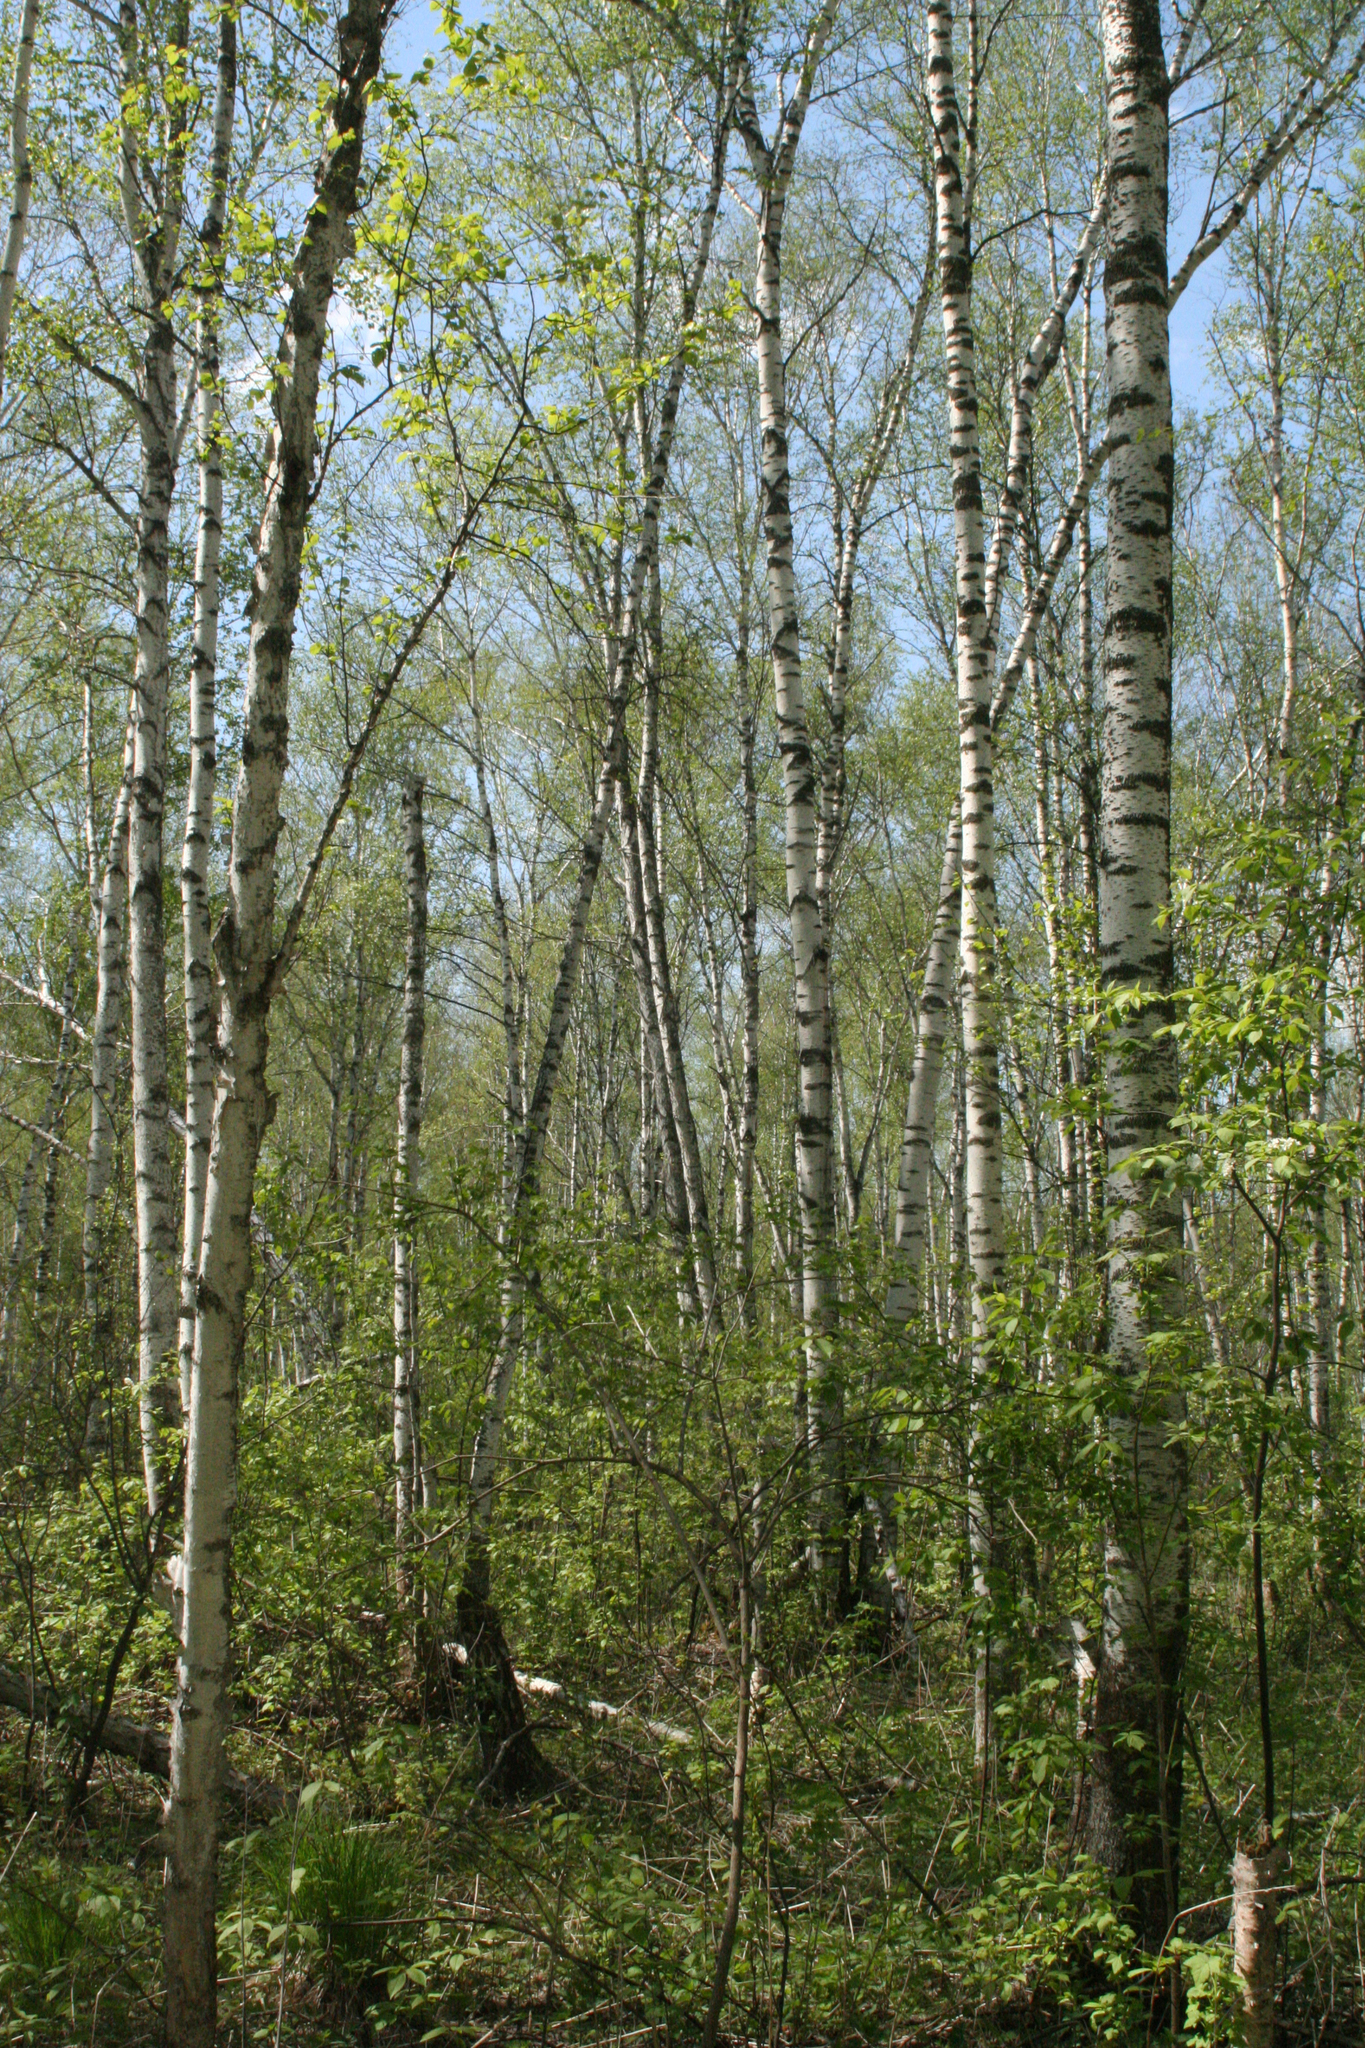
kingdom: Plantae
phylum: Tracheophyta
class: Magnoliopsida
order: Fagales
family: Betulaceae
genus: Betula
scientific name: Betula pendula
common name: Silver birch
